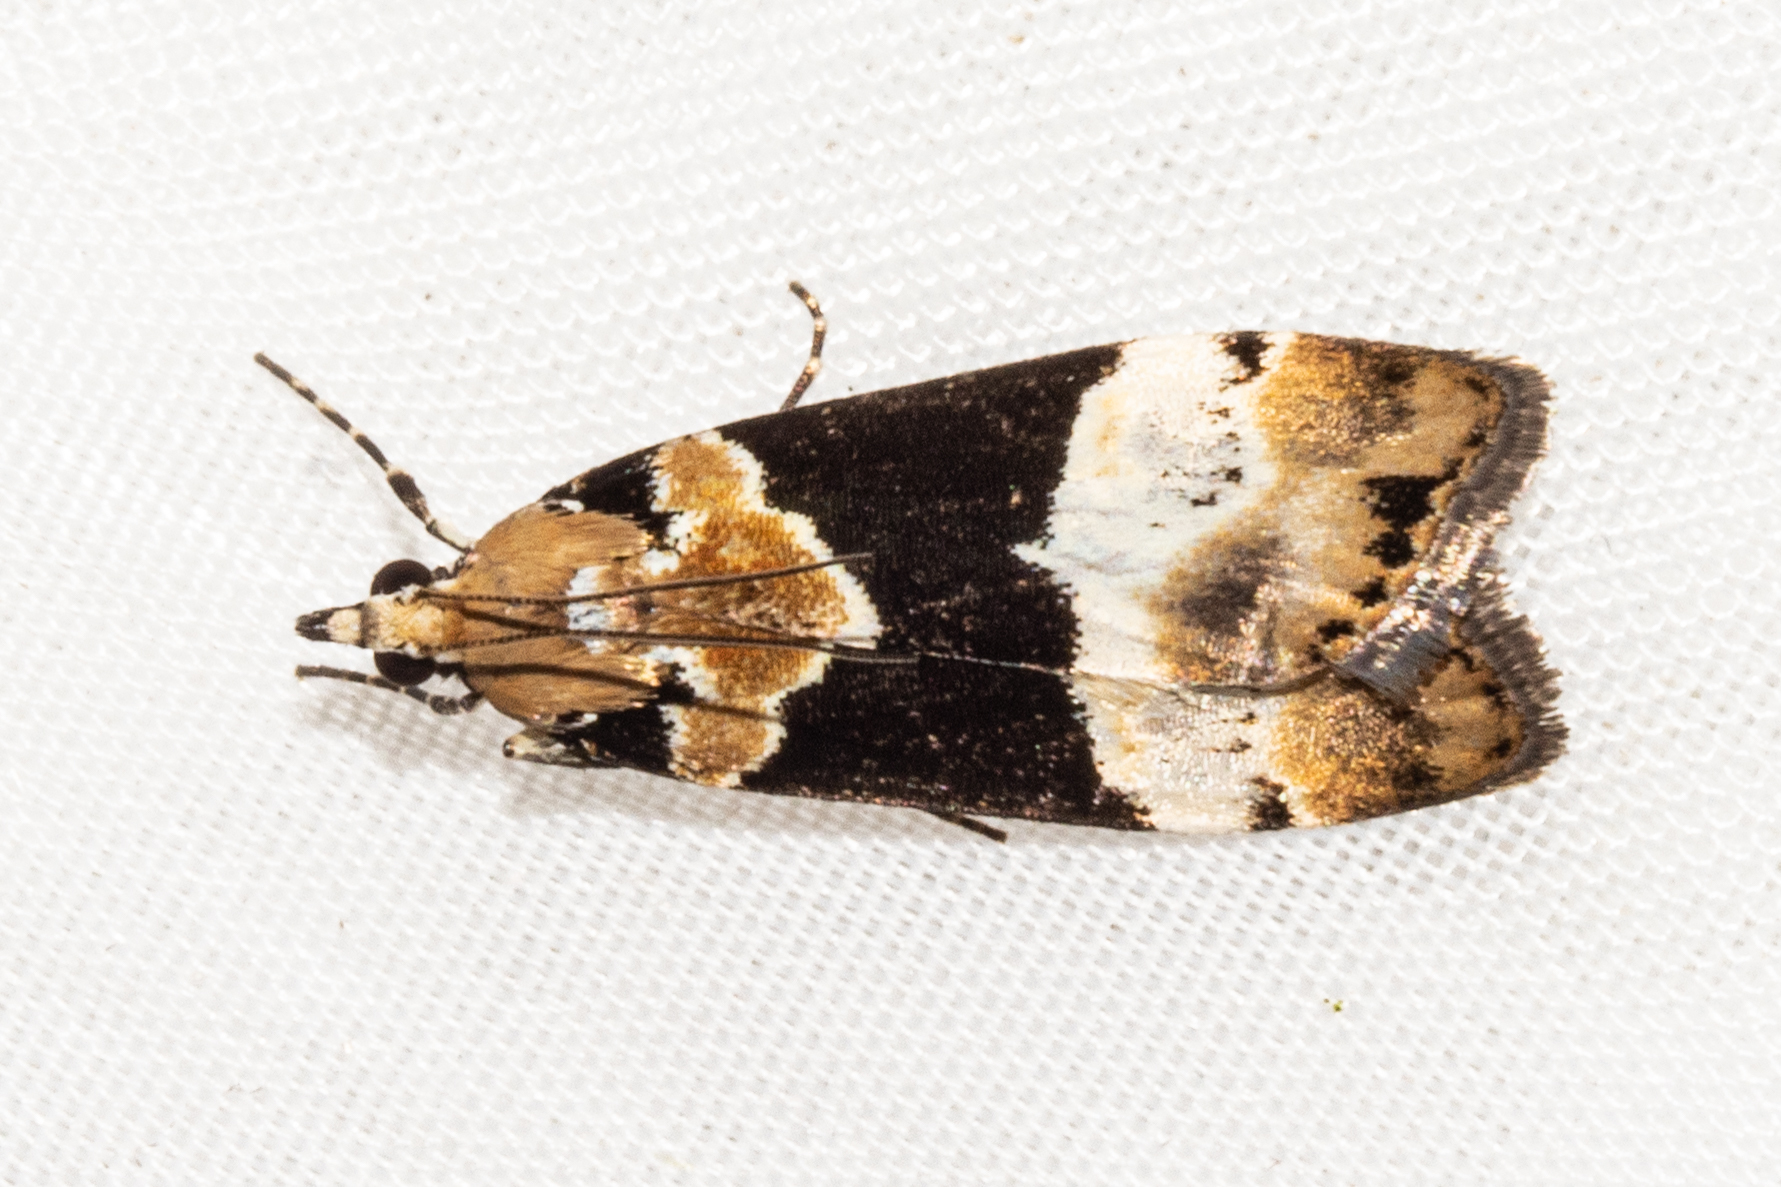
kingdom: Animalia
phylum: Arthropoda
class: Insecta
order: Lepidoptera
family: Crambidae
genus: Eudonia
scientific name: Eudonia aspidota
